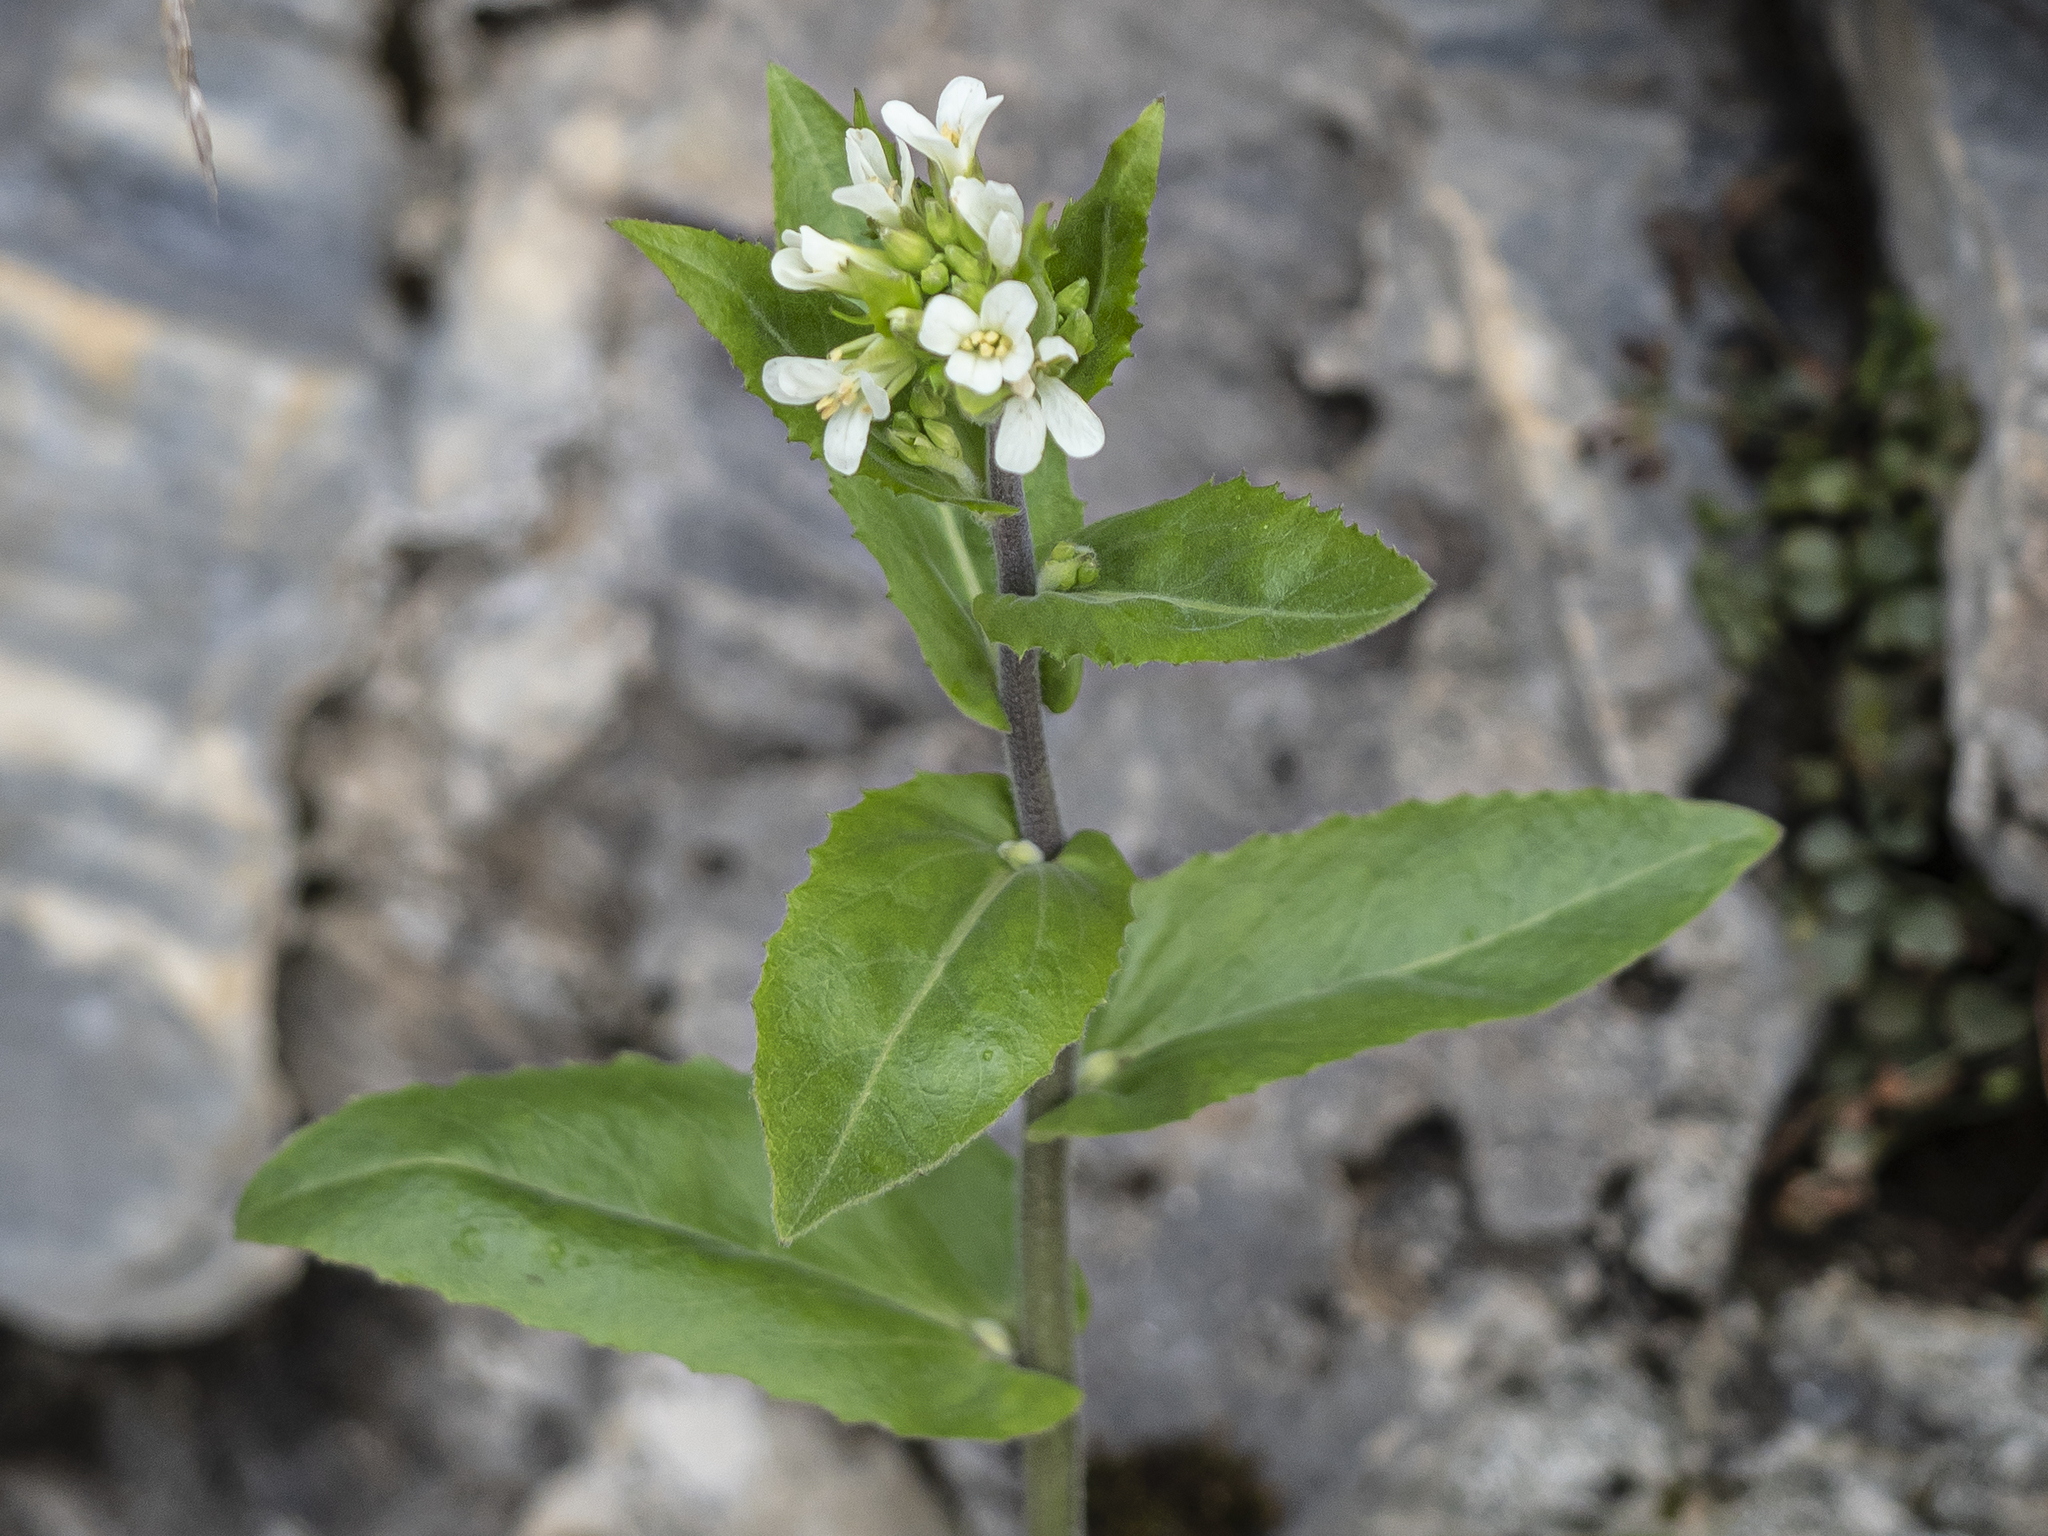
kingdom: Plantae
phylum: Tracheophyta
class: Magnoliopsida
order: Brassicales
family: Brassicaceae
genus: Pseudoturritis
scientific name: Pseudoturritis turrita
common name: Tower cress
